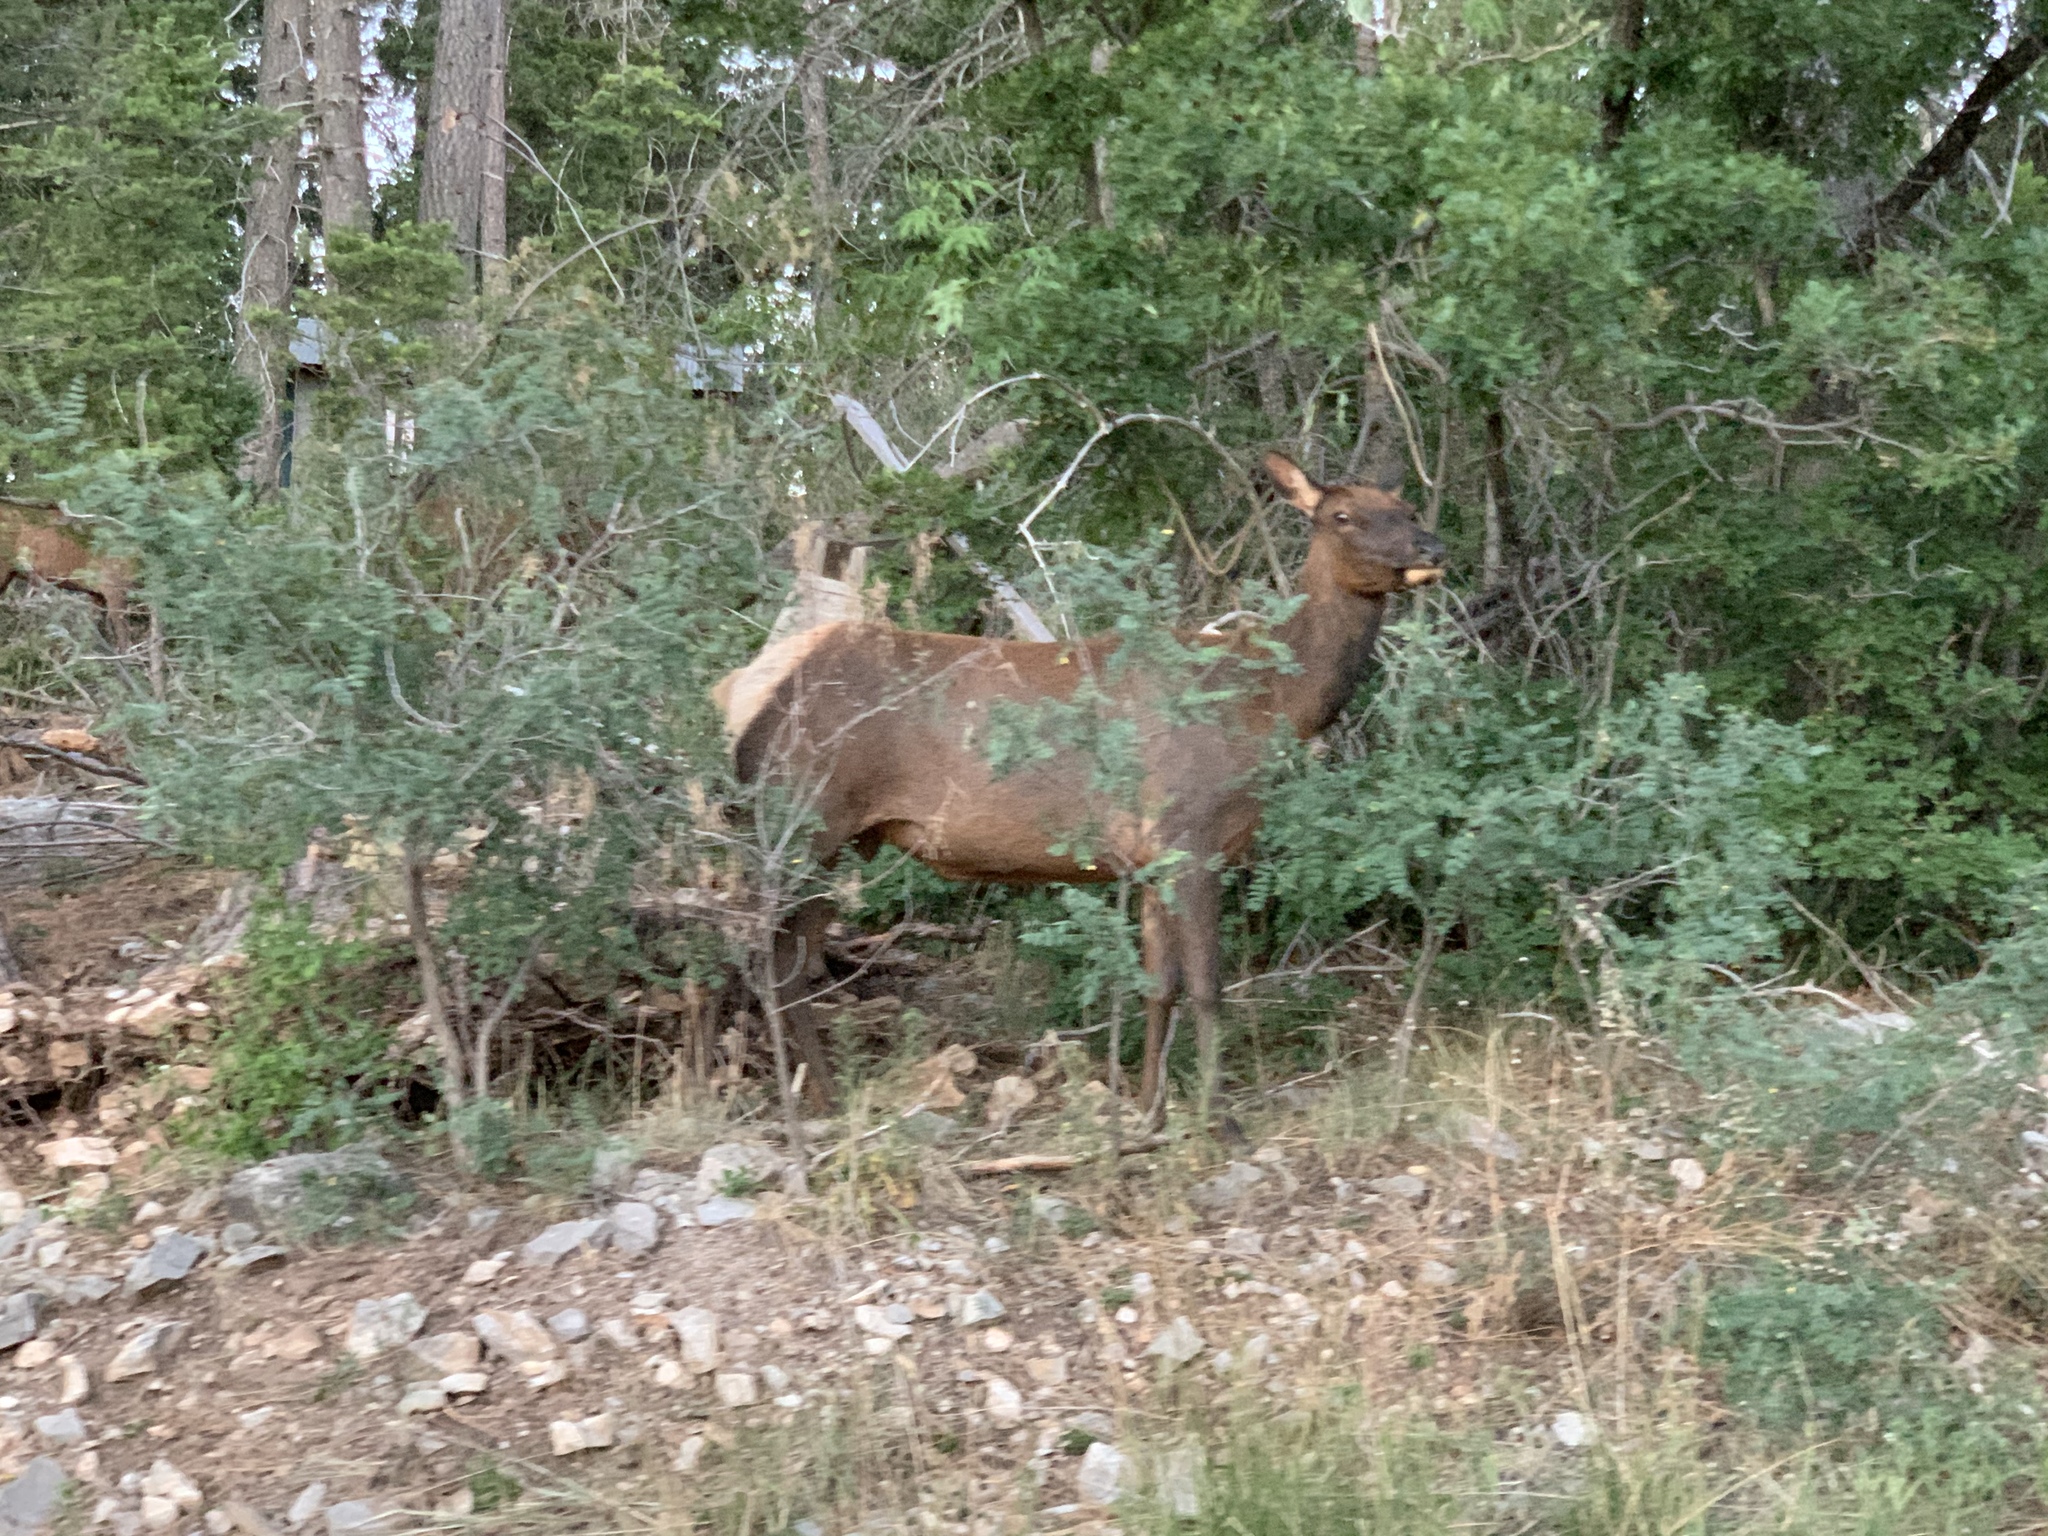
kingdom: Animalia
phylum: Chordata
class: Mammalia
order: Artiodactyla
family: Cervidae
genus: Cervus
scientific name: Cervus elaphus
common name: Red deer
